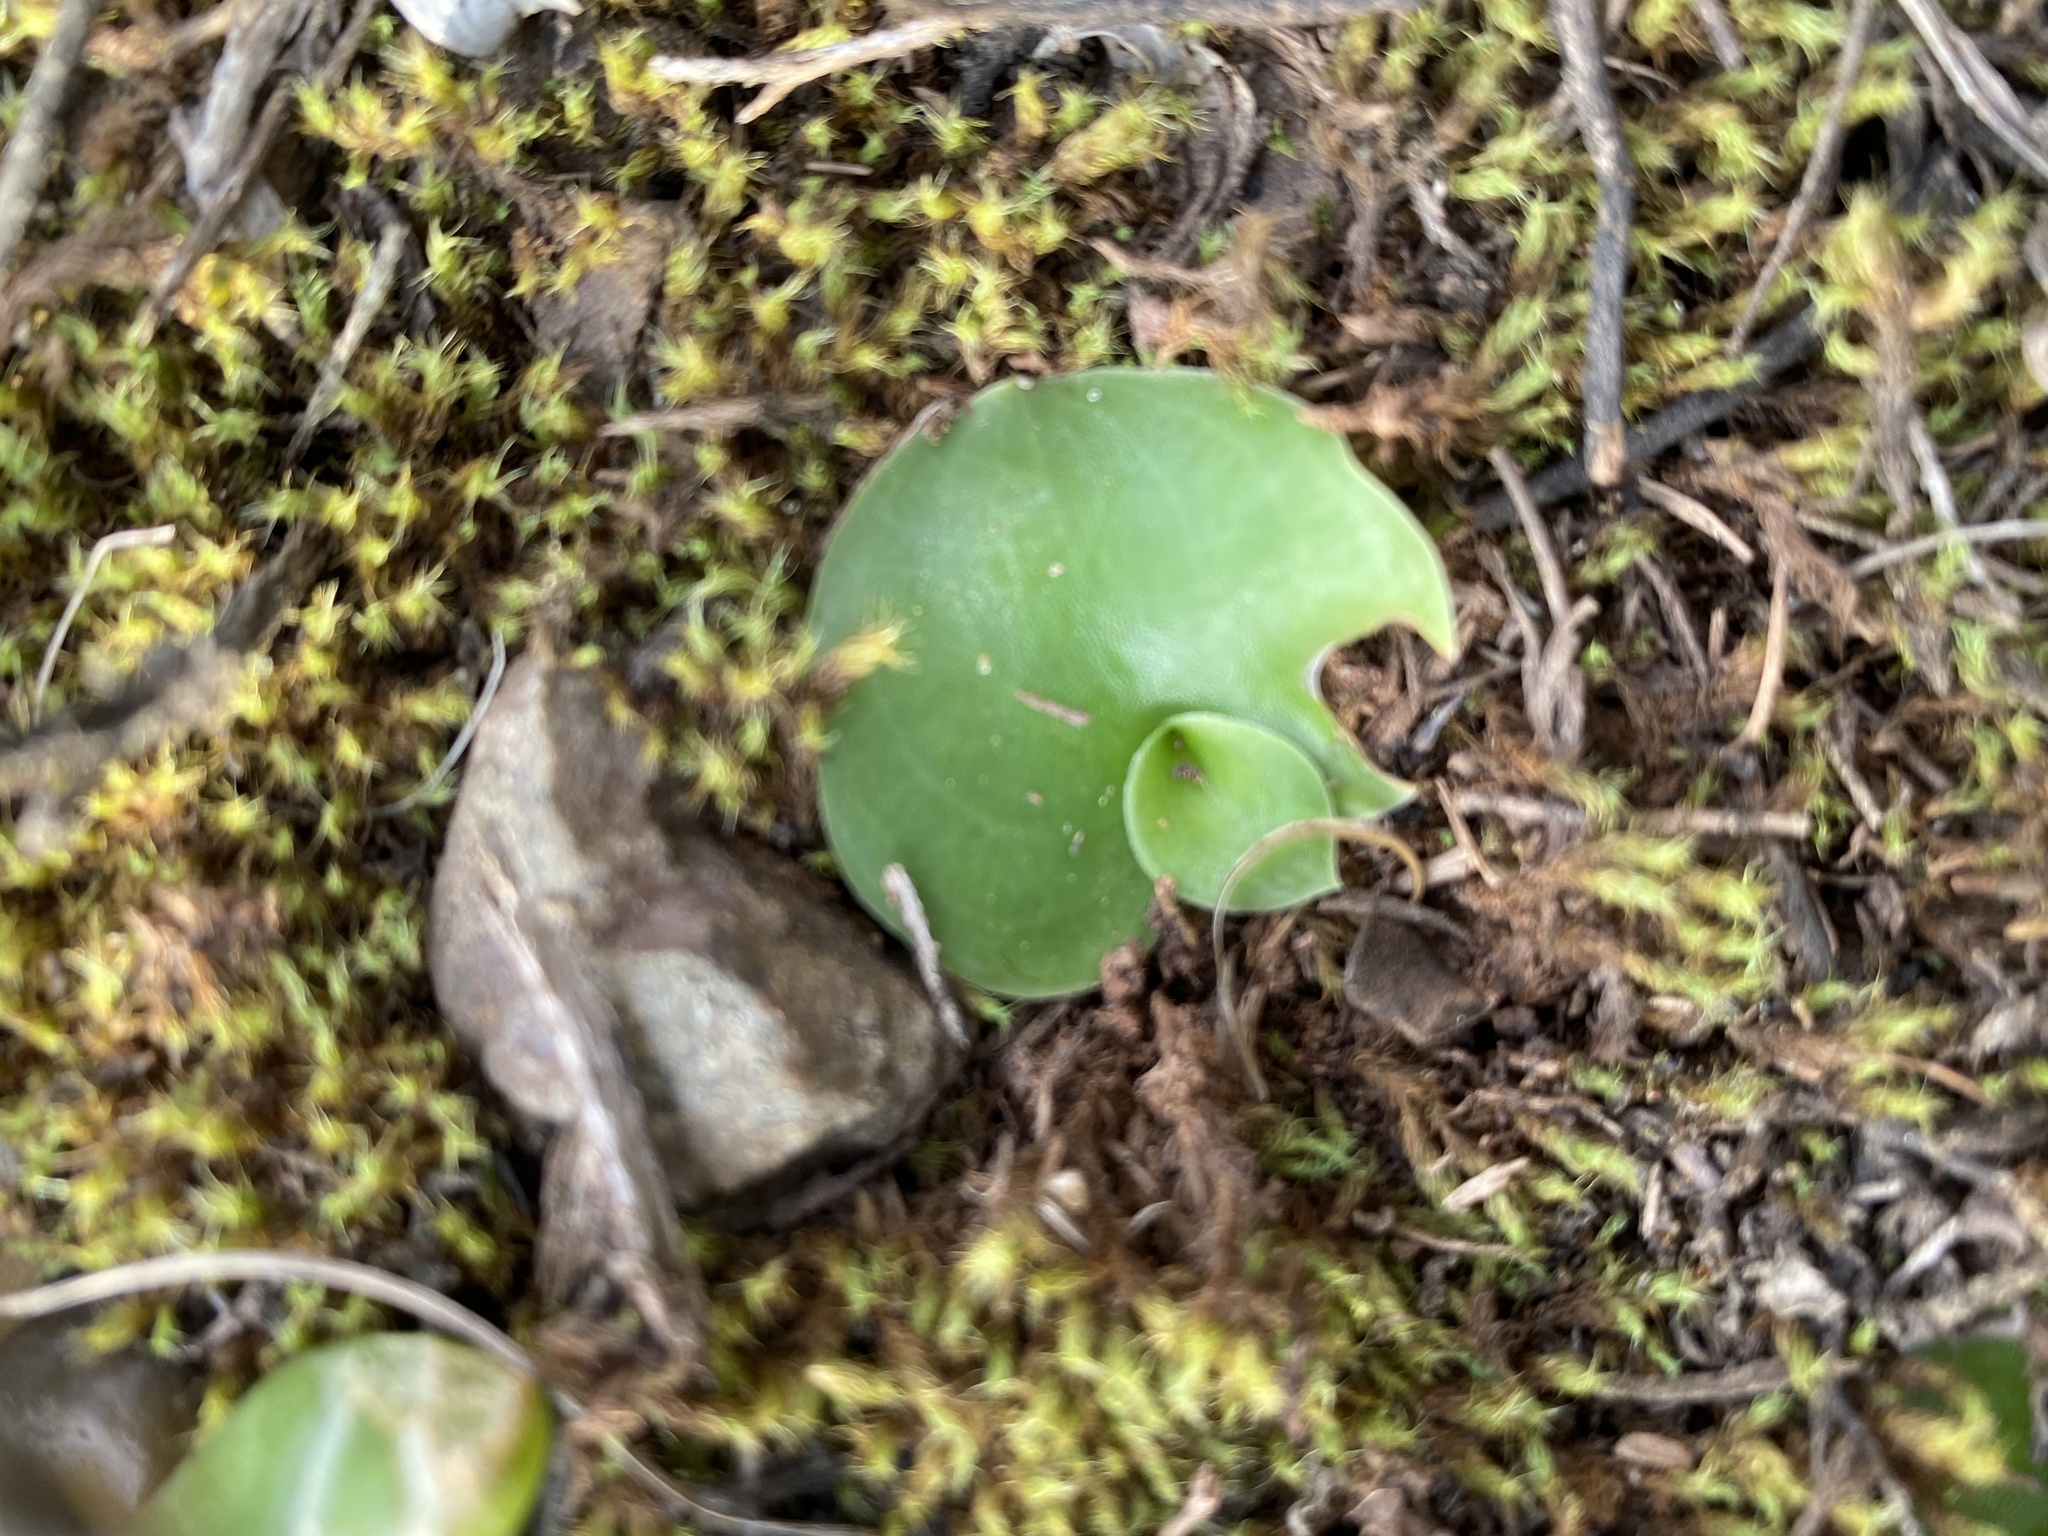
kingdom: Plantae
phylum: Tracheophyta
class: Liliopsida
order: Asparagales
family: Orchidaceae
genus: Holothrix
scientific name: Holothrix burchellii
